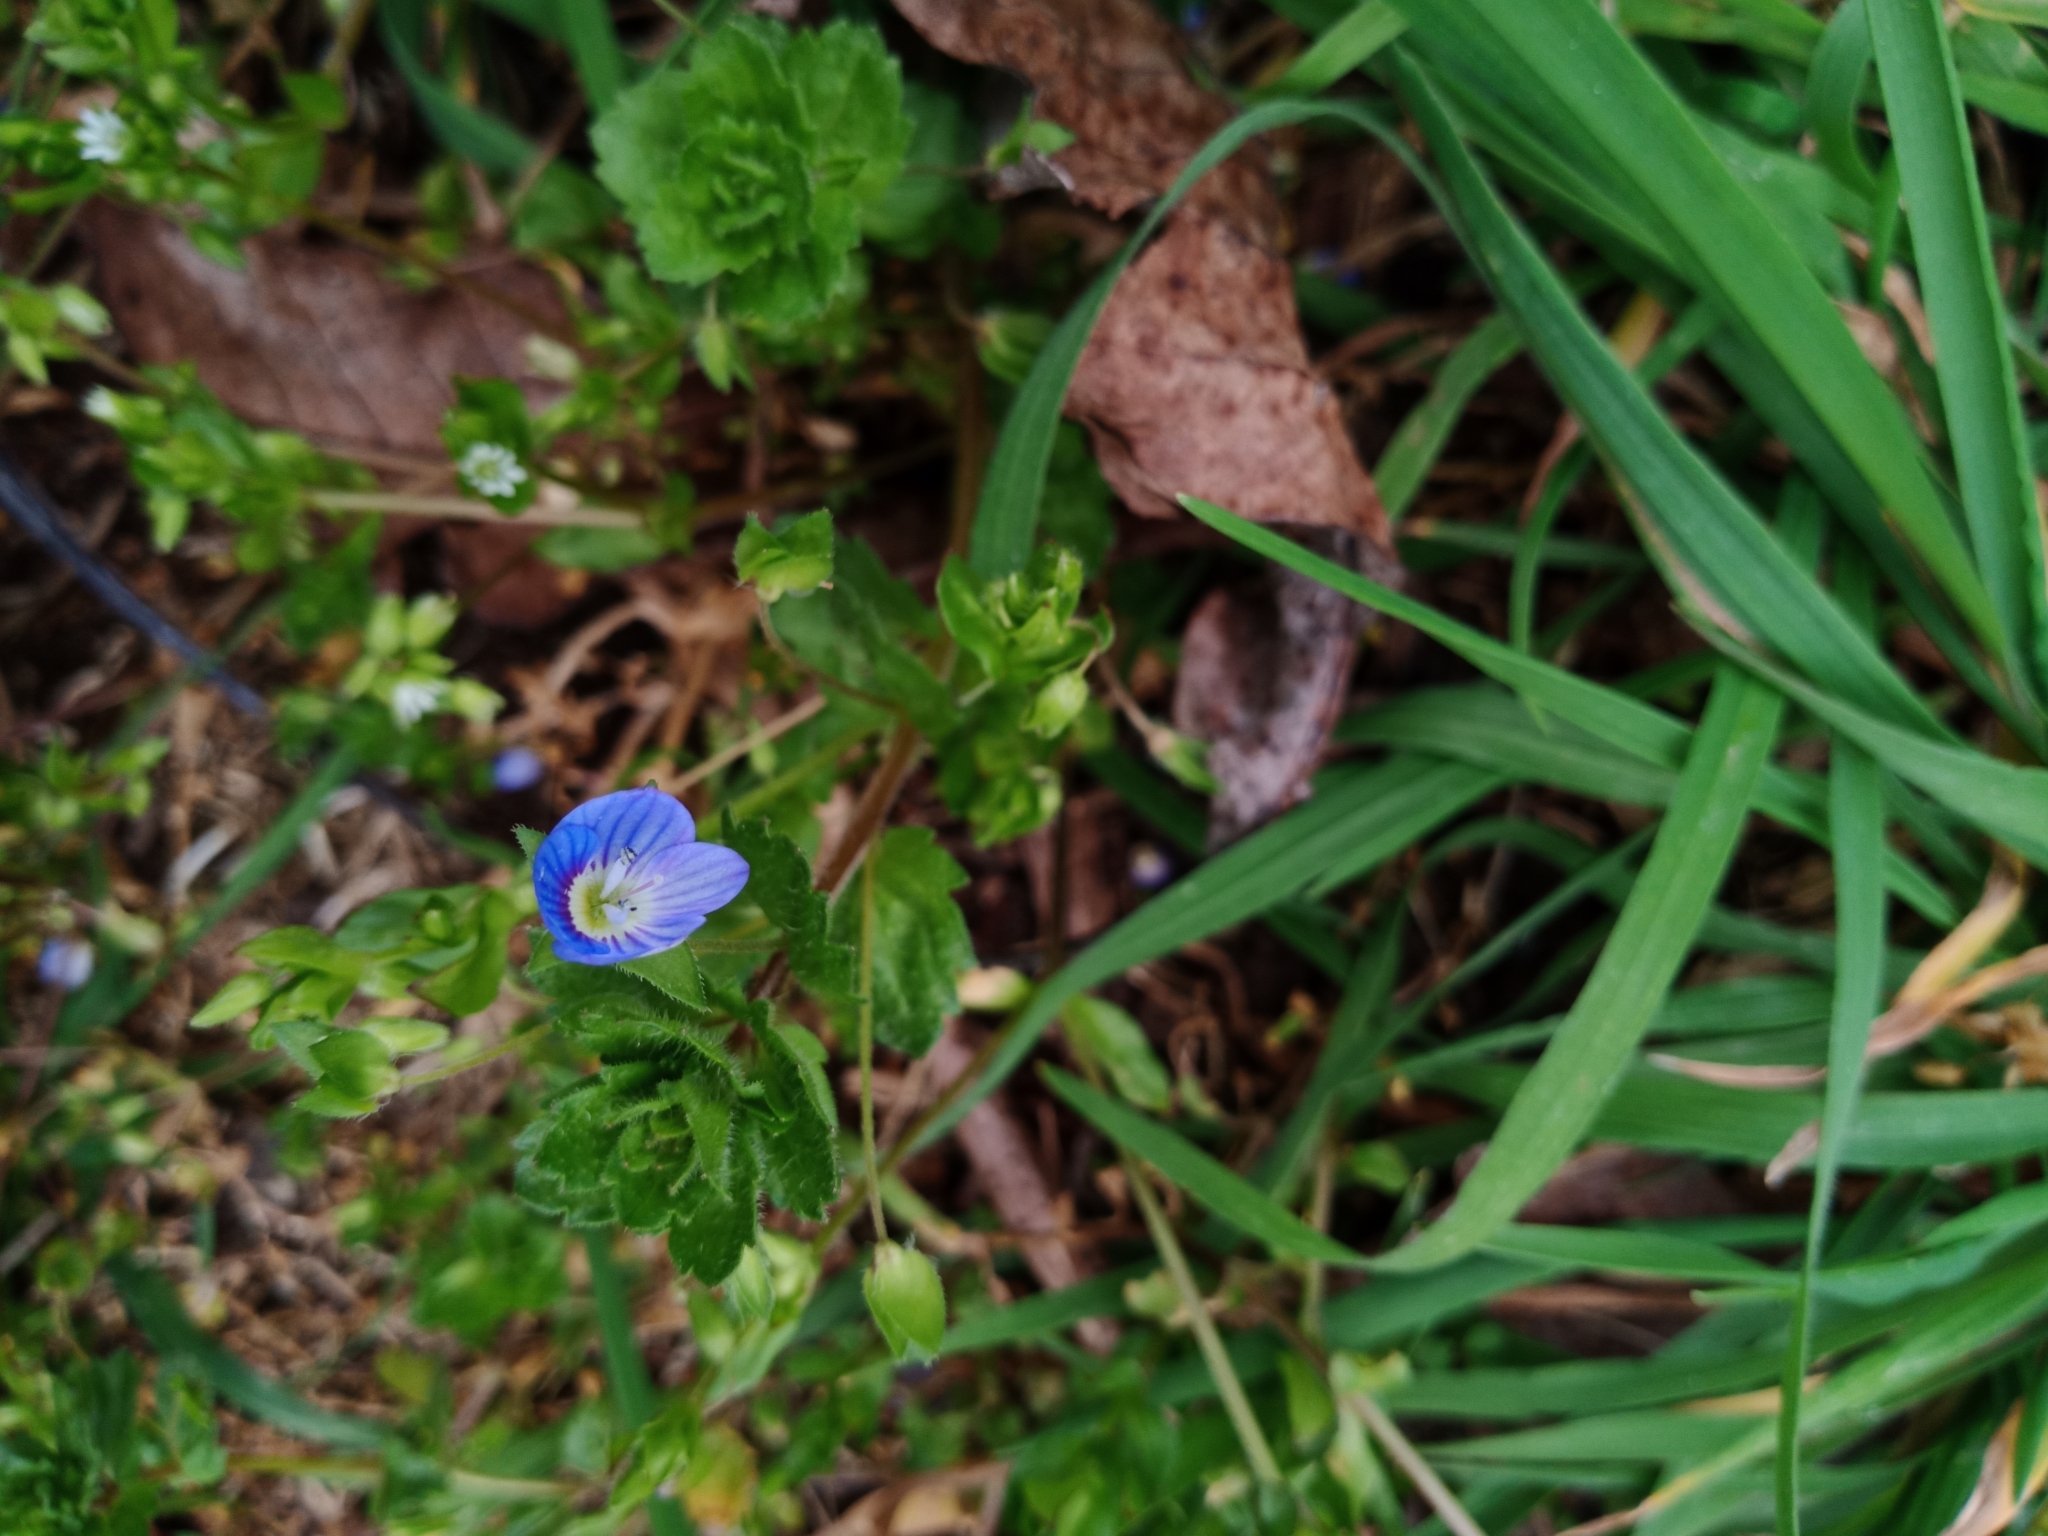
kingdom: Plantae
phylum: Tracheophyta
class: Magnoliopsida
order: Lamiales
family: Plantaginaceae
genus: Veronica
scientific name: Veronica persica
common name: Common field-speedwell
